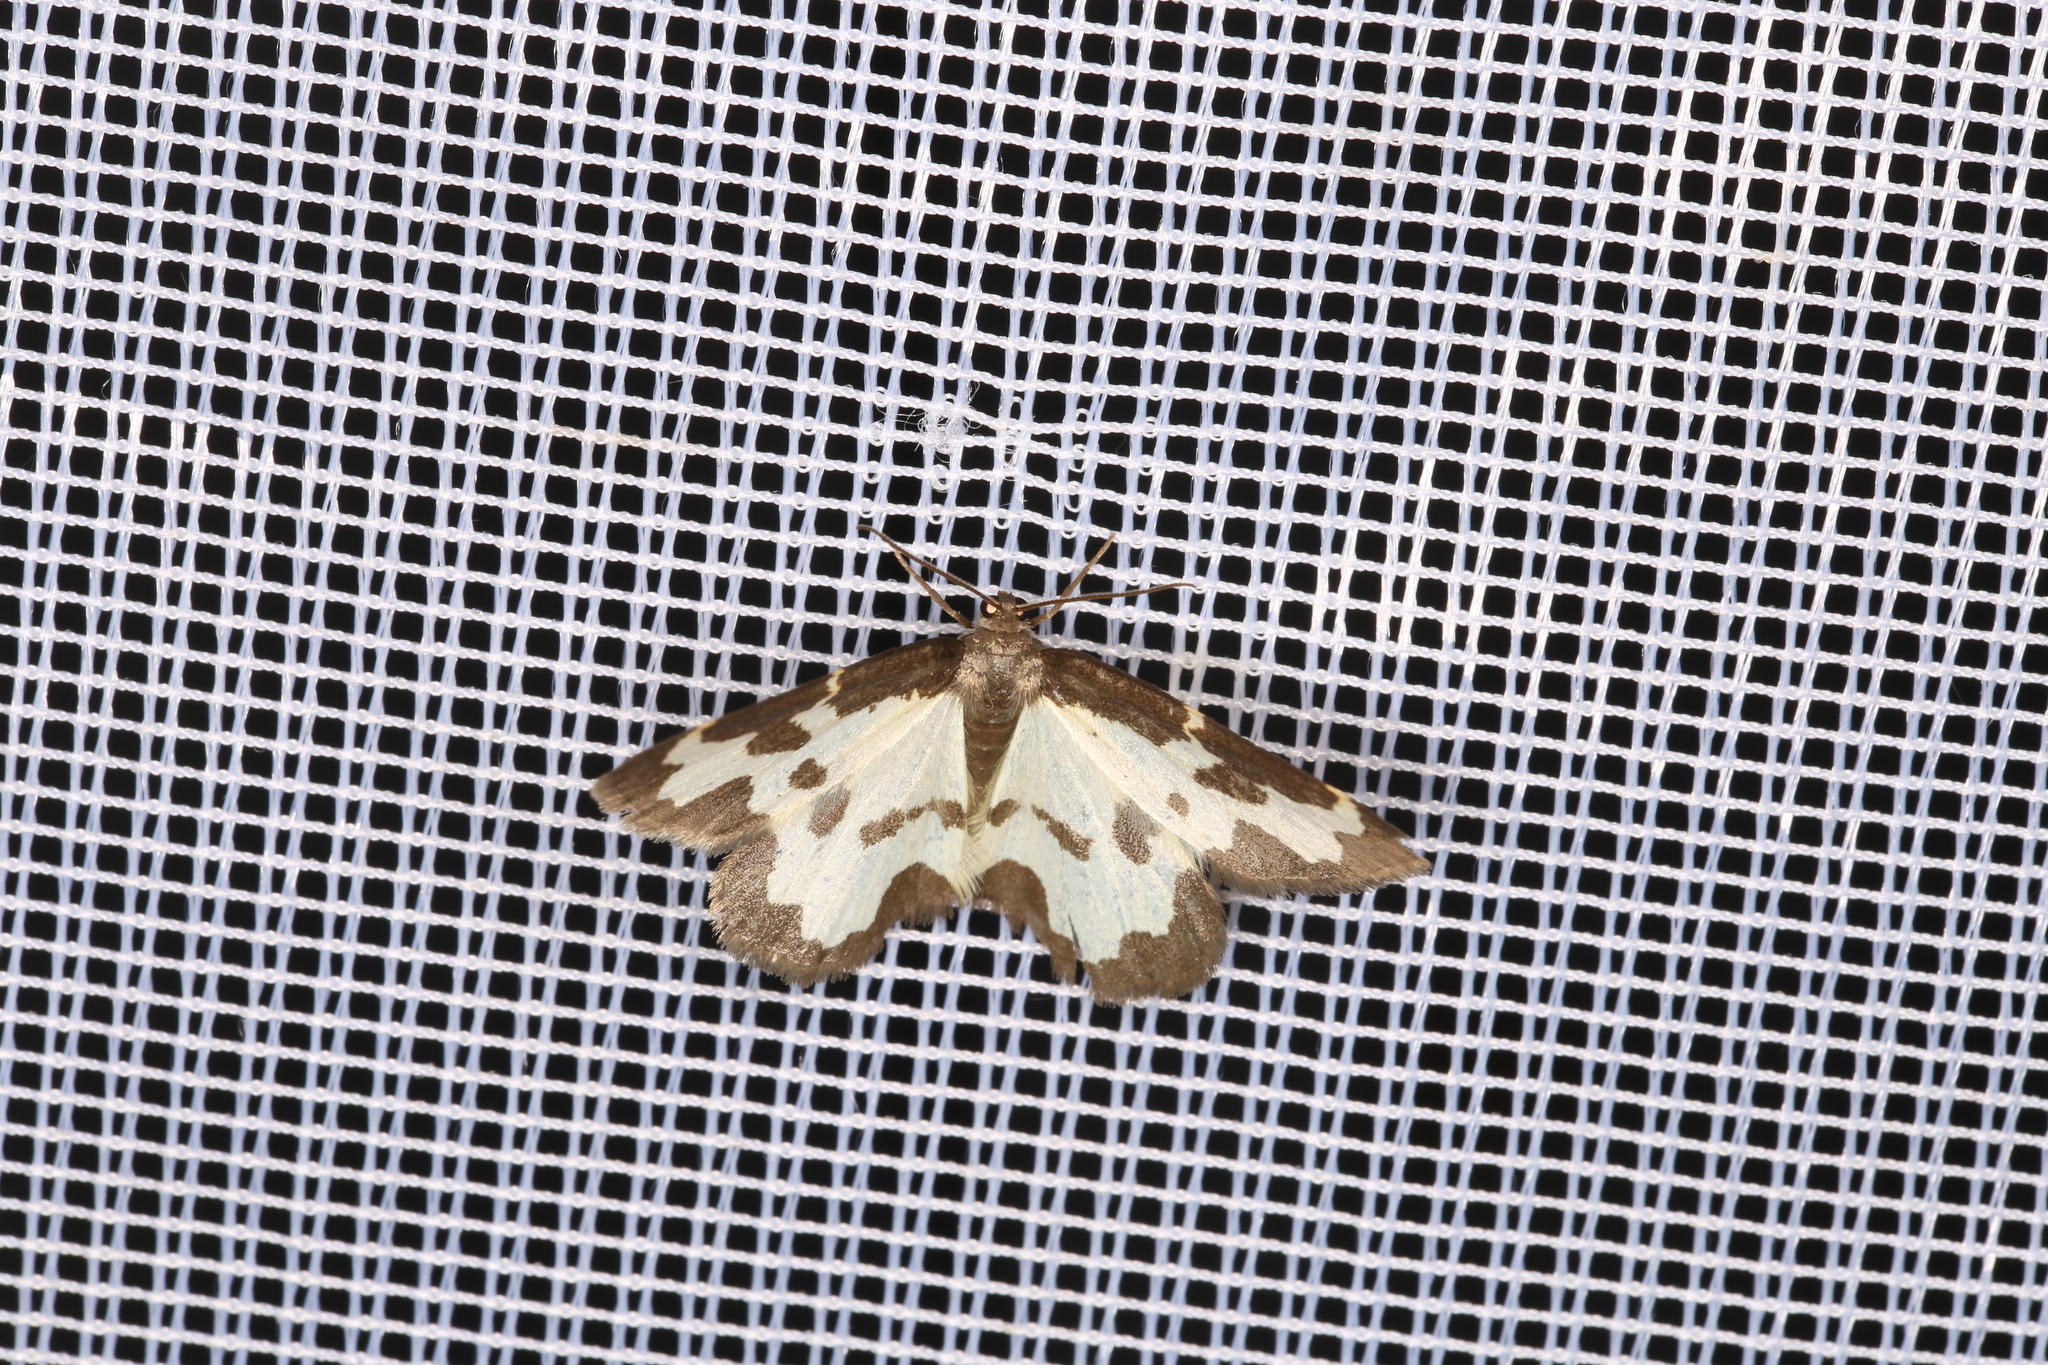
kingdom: Animalia
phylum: Arthropoda
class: Insecta
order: Lepidoptera
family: Geometridae
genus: Lomaspilis
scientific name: Lomaspilis marginata
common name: Clouded border
